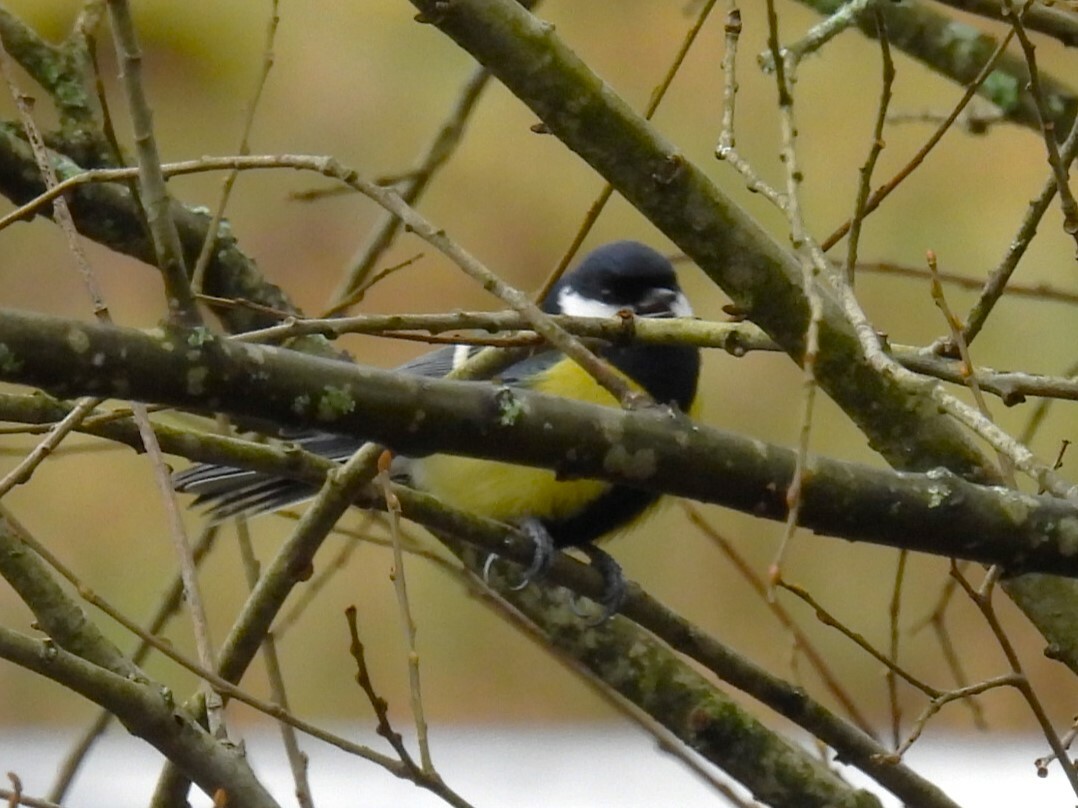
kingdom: Animalia
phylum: Chordata
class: Aves
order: Passeriformes
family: Paridae
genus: Parus
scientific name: Parus major
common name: Great tit
